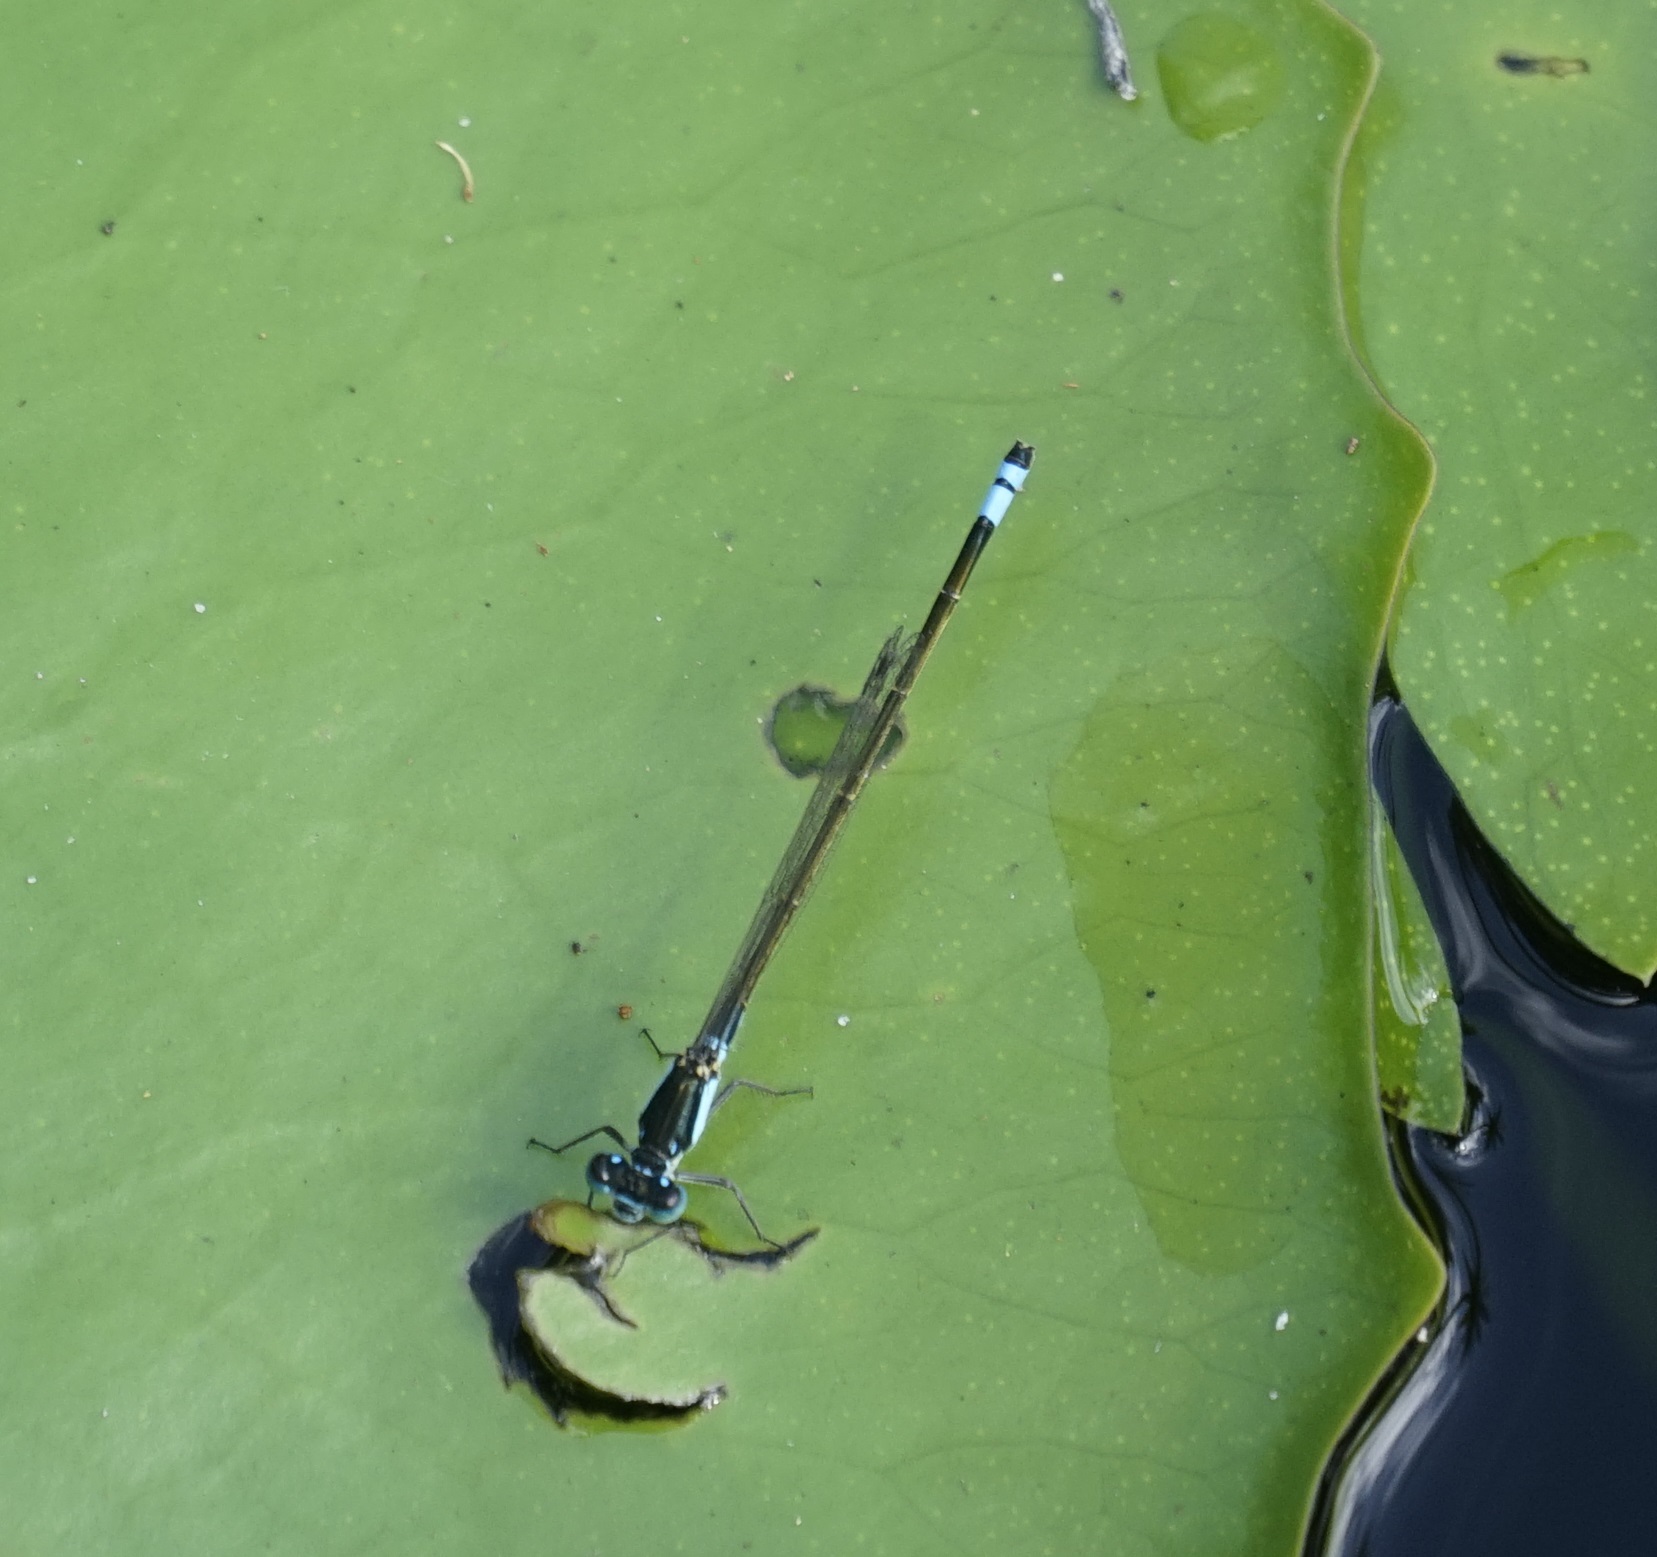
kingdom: Animalia
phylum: Arthropoda
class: Insecta
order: Odonata
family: Coenagrionidae
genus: Ischnura
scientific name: Ischnura heterosticta
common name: Common bluetail
